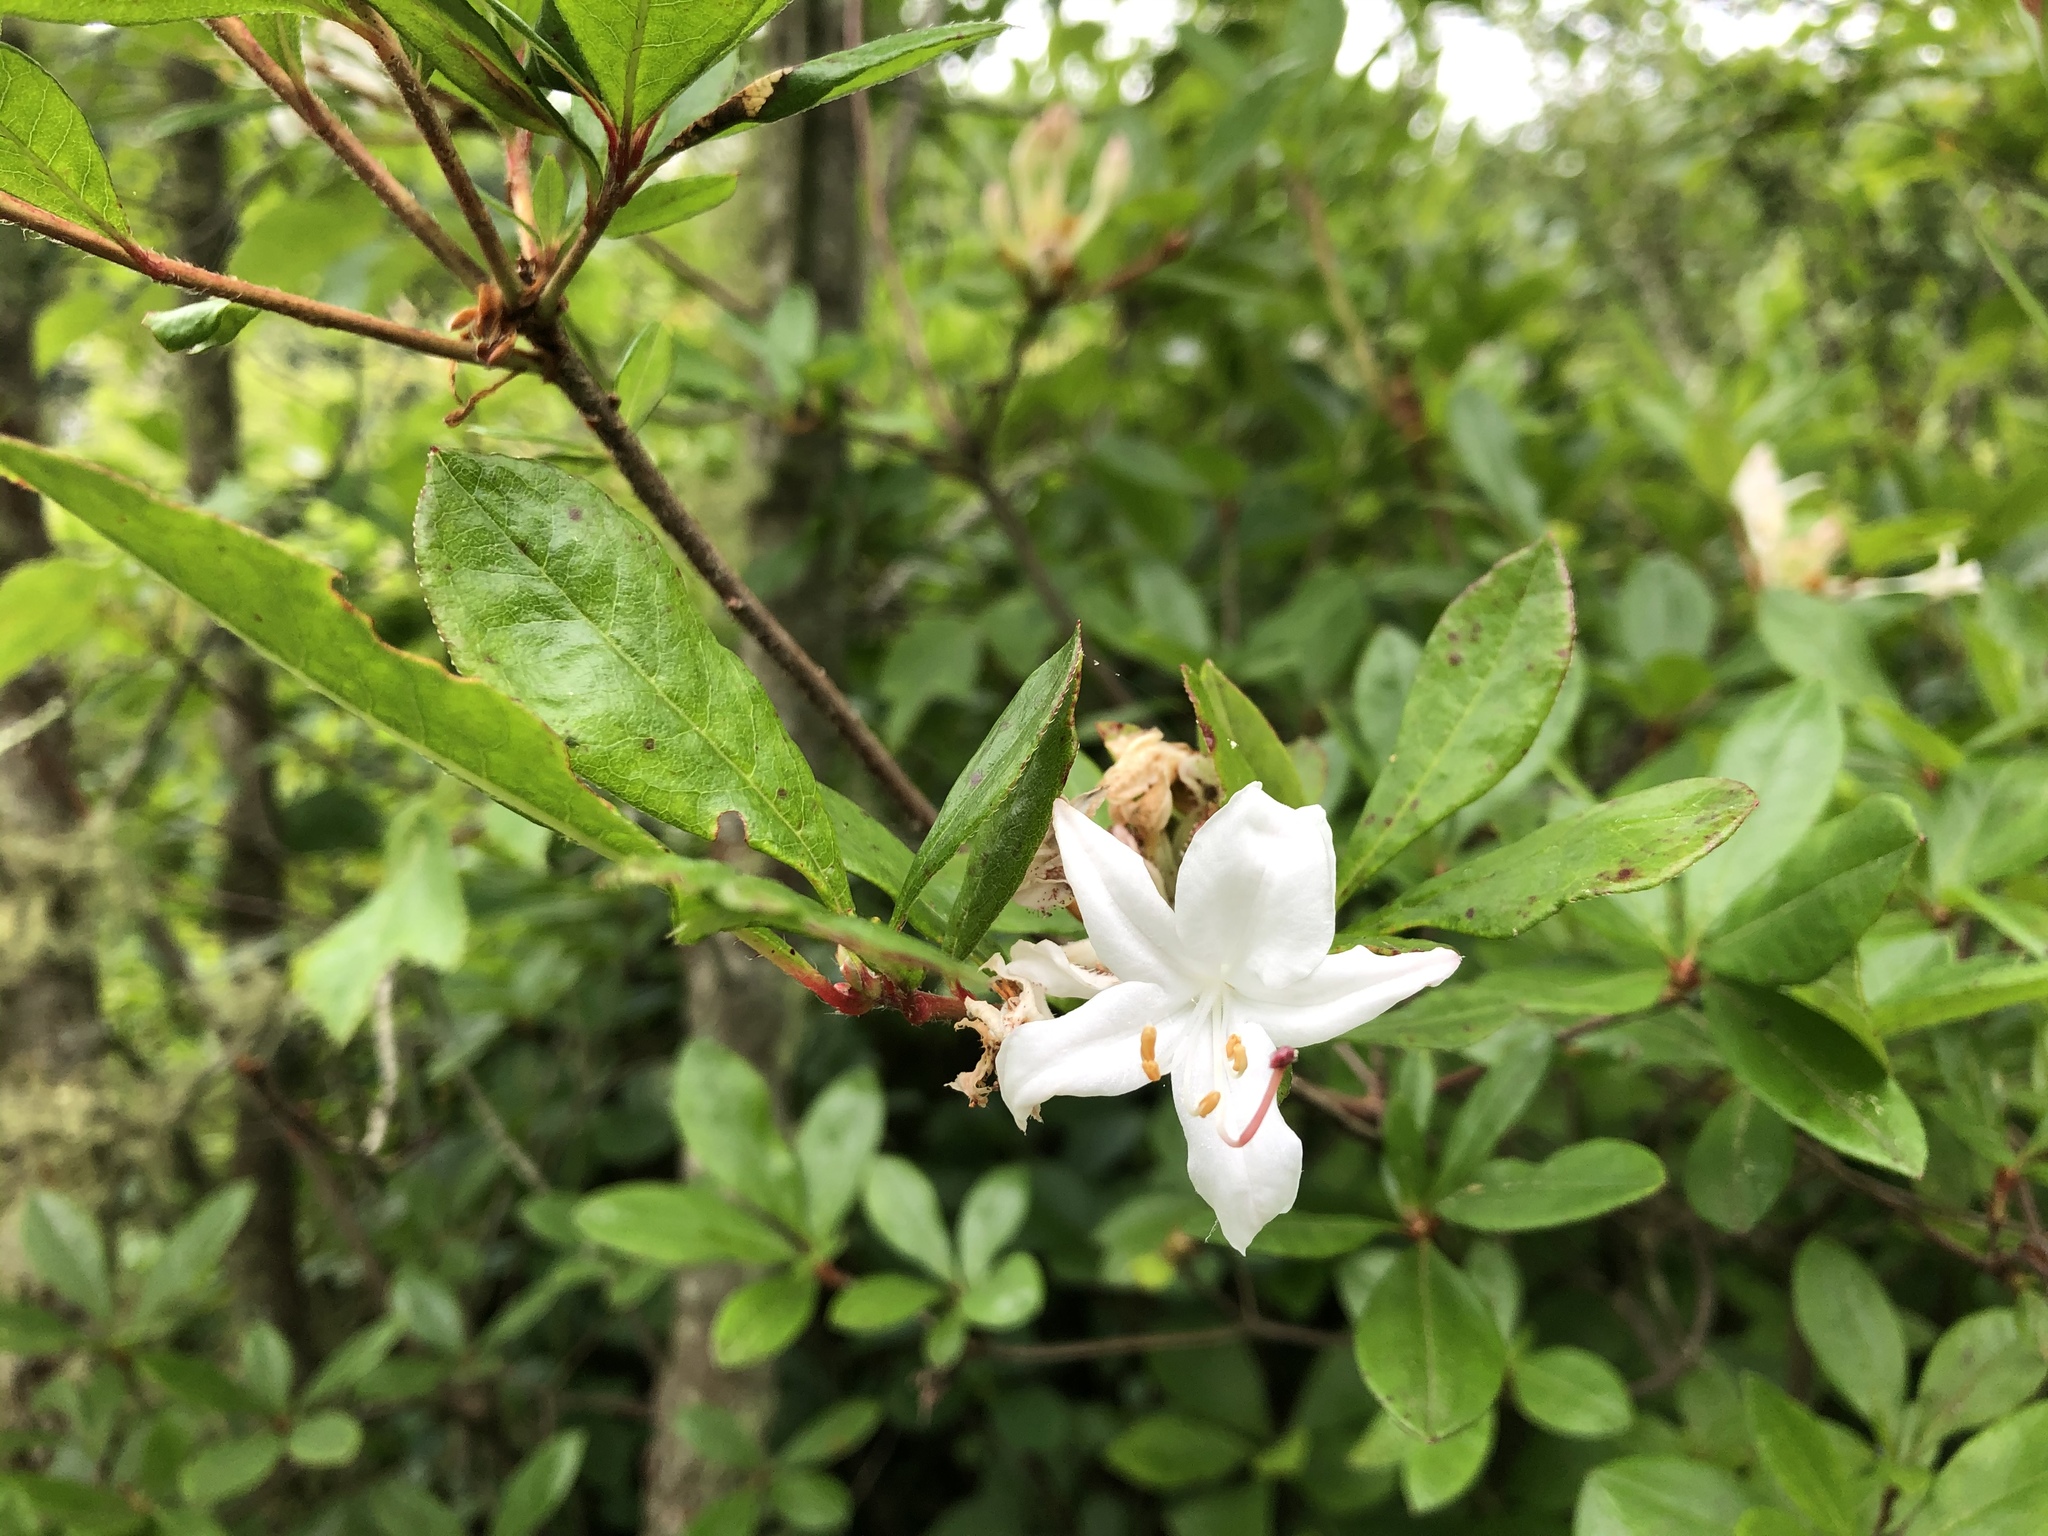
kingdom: Plantae
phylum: Tracheophyta
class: Magnoliopsida
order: Ericales
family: Ericaceae
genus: Rhododendron
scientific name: Rhododendron viscosum
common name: Clammy azalea
